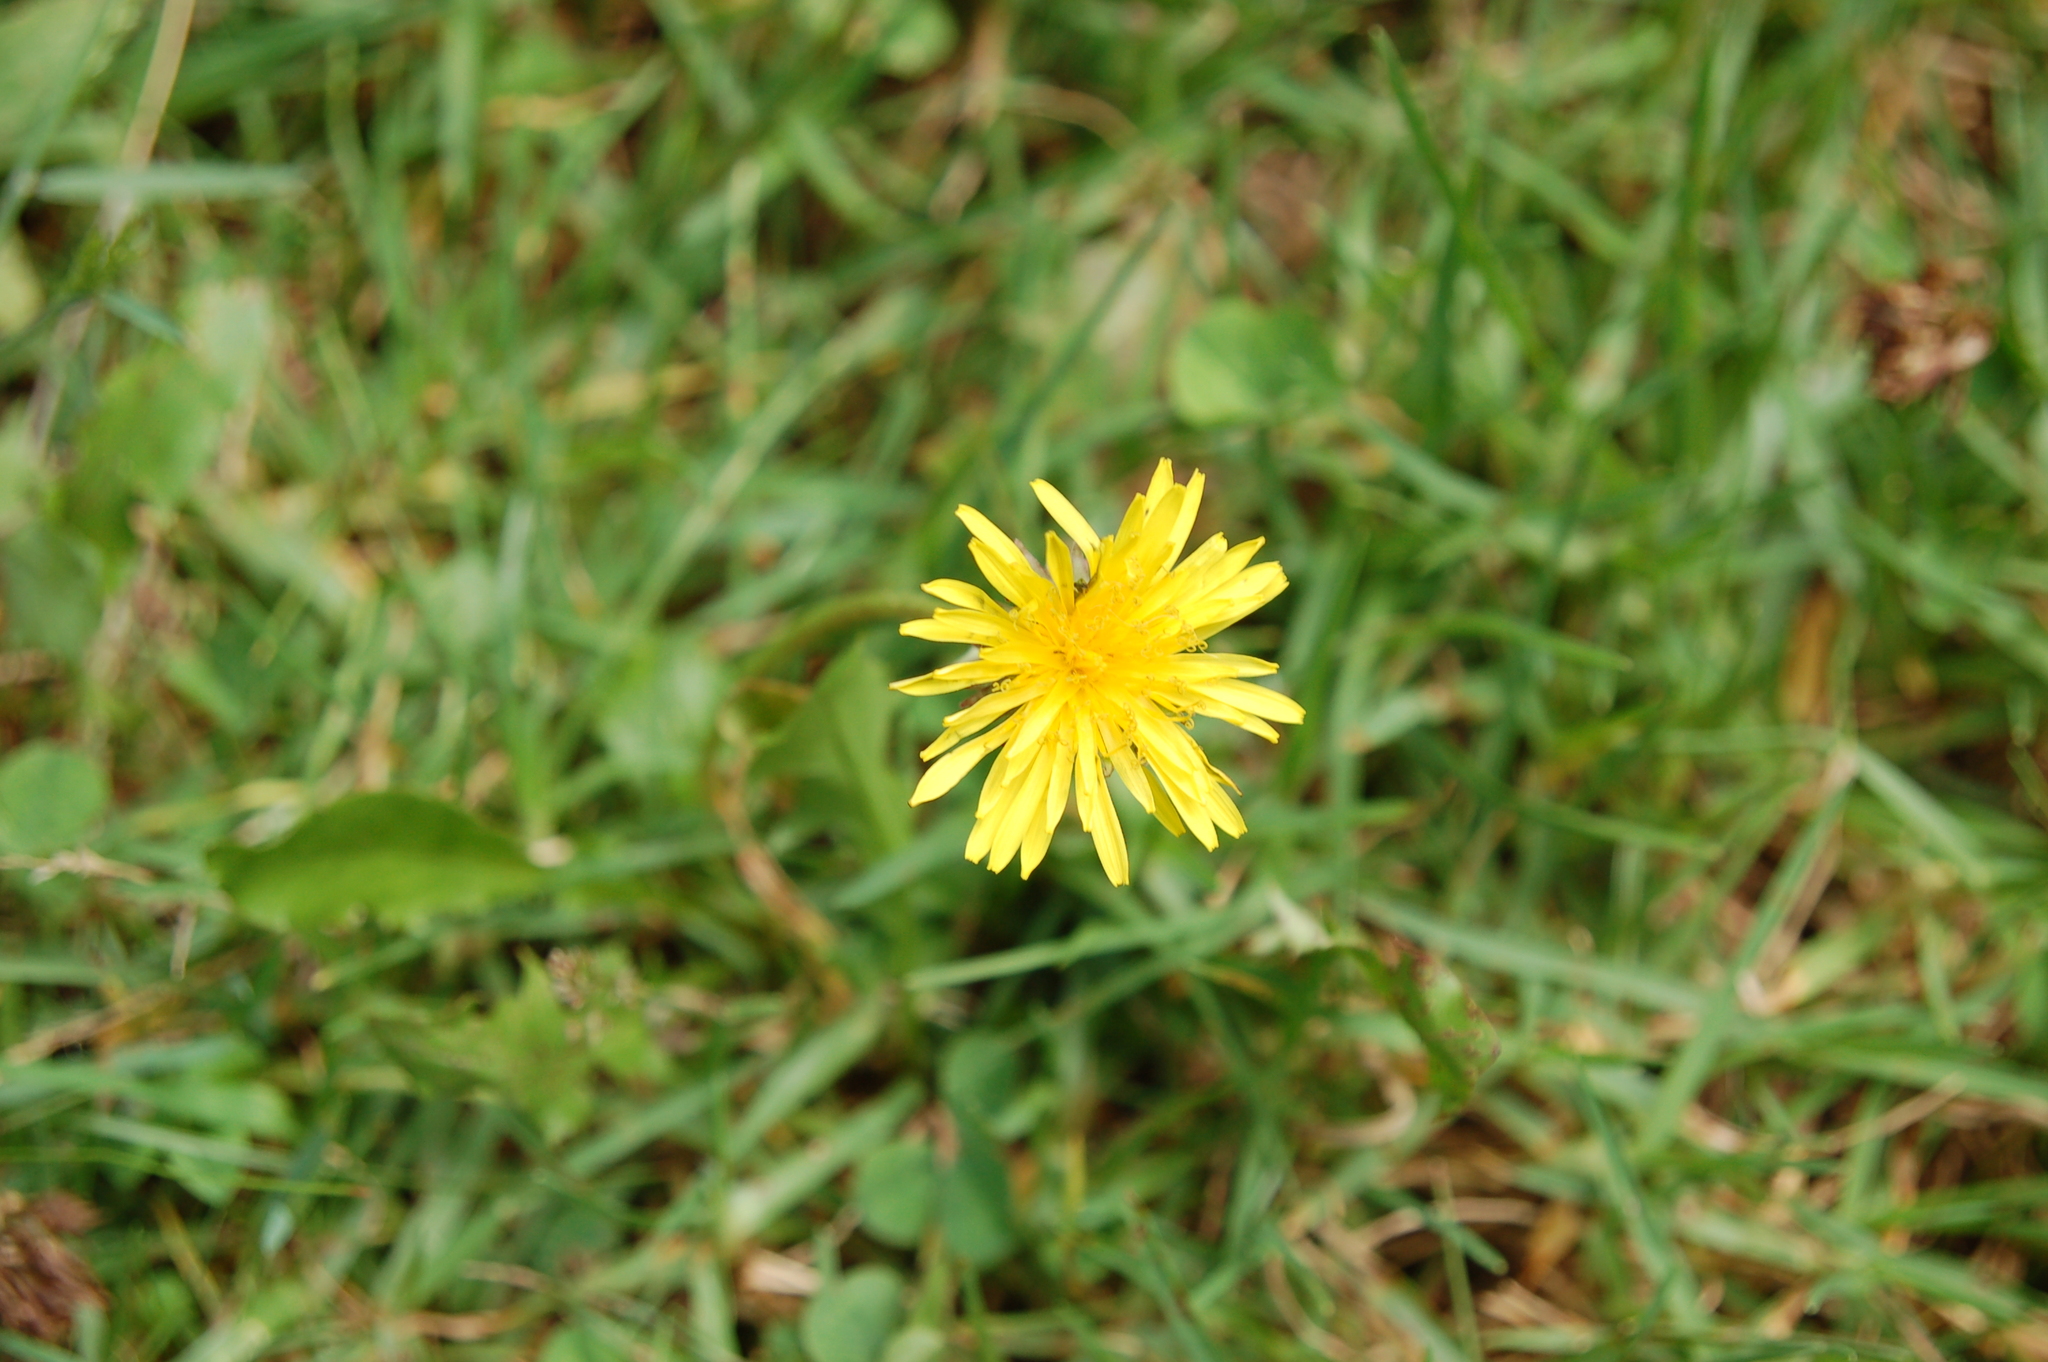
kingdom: Plantae
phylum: Tracheophyta
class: Magnoliopsida
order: Asterales
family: Asteraceae
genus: Taraxacum
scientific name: Taraxacum officinale
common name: Common dandelion
